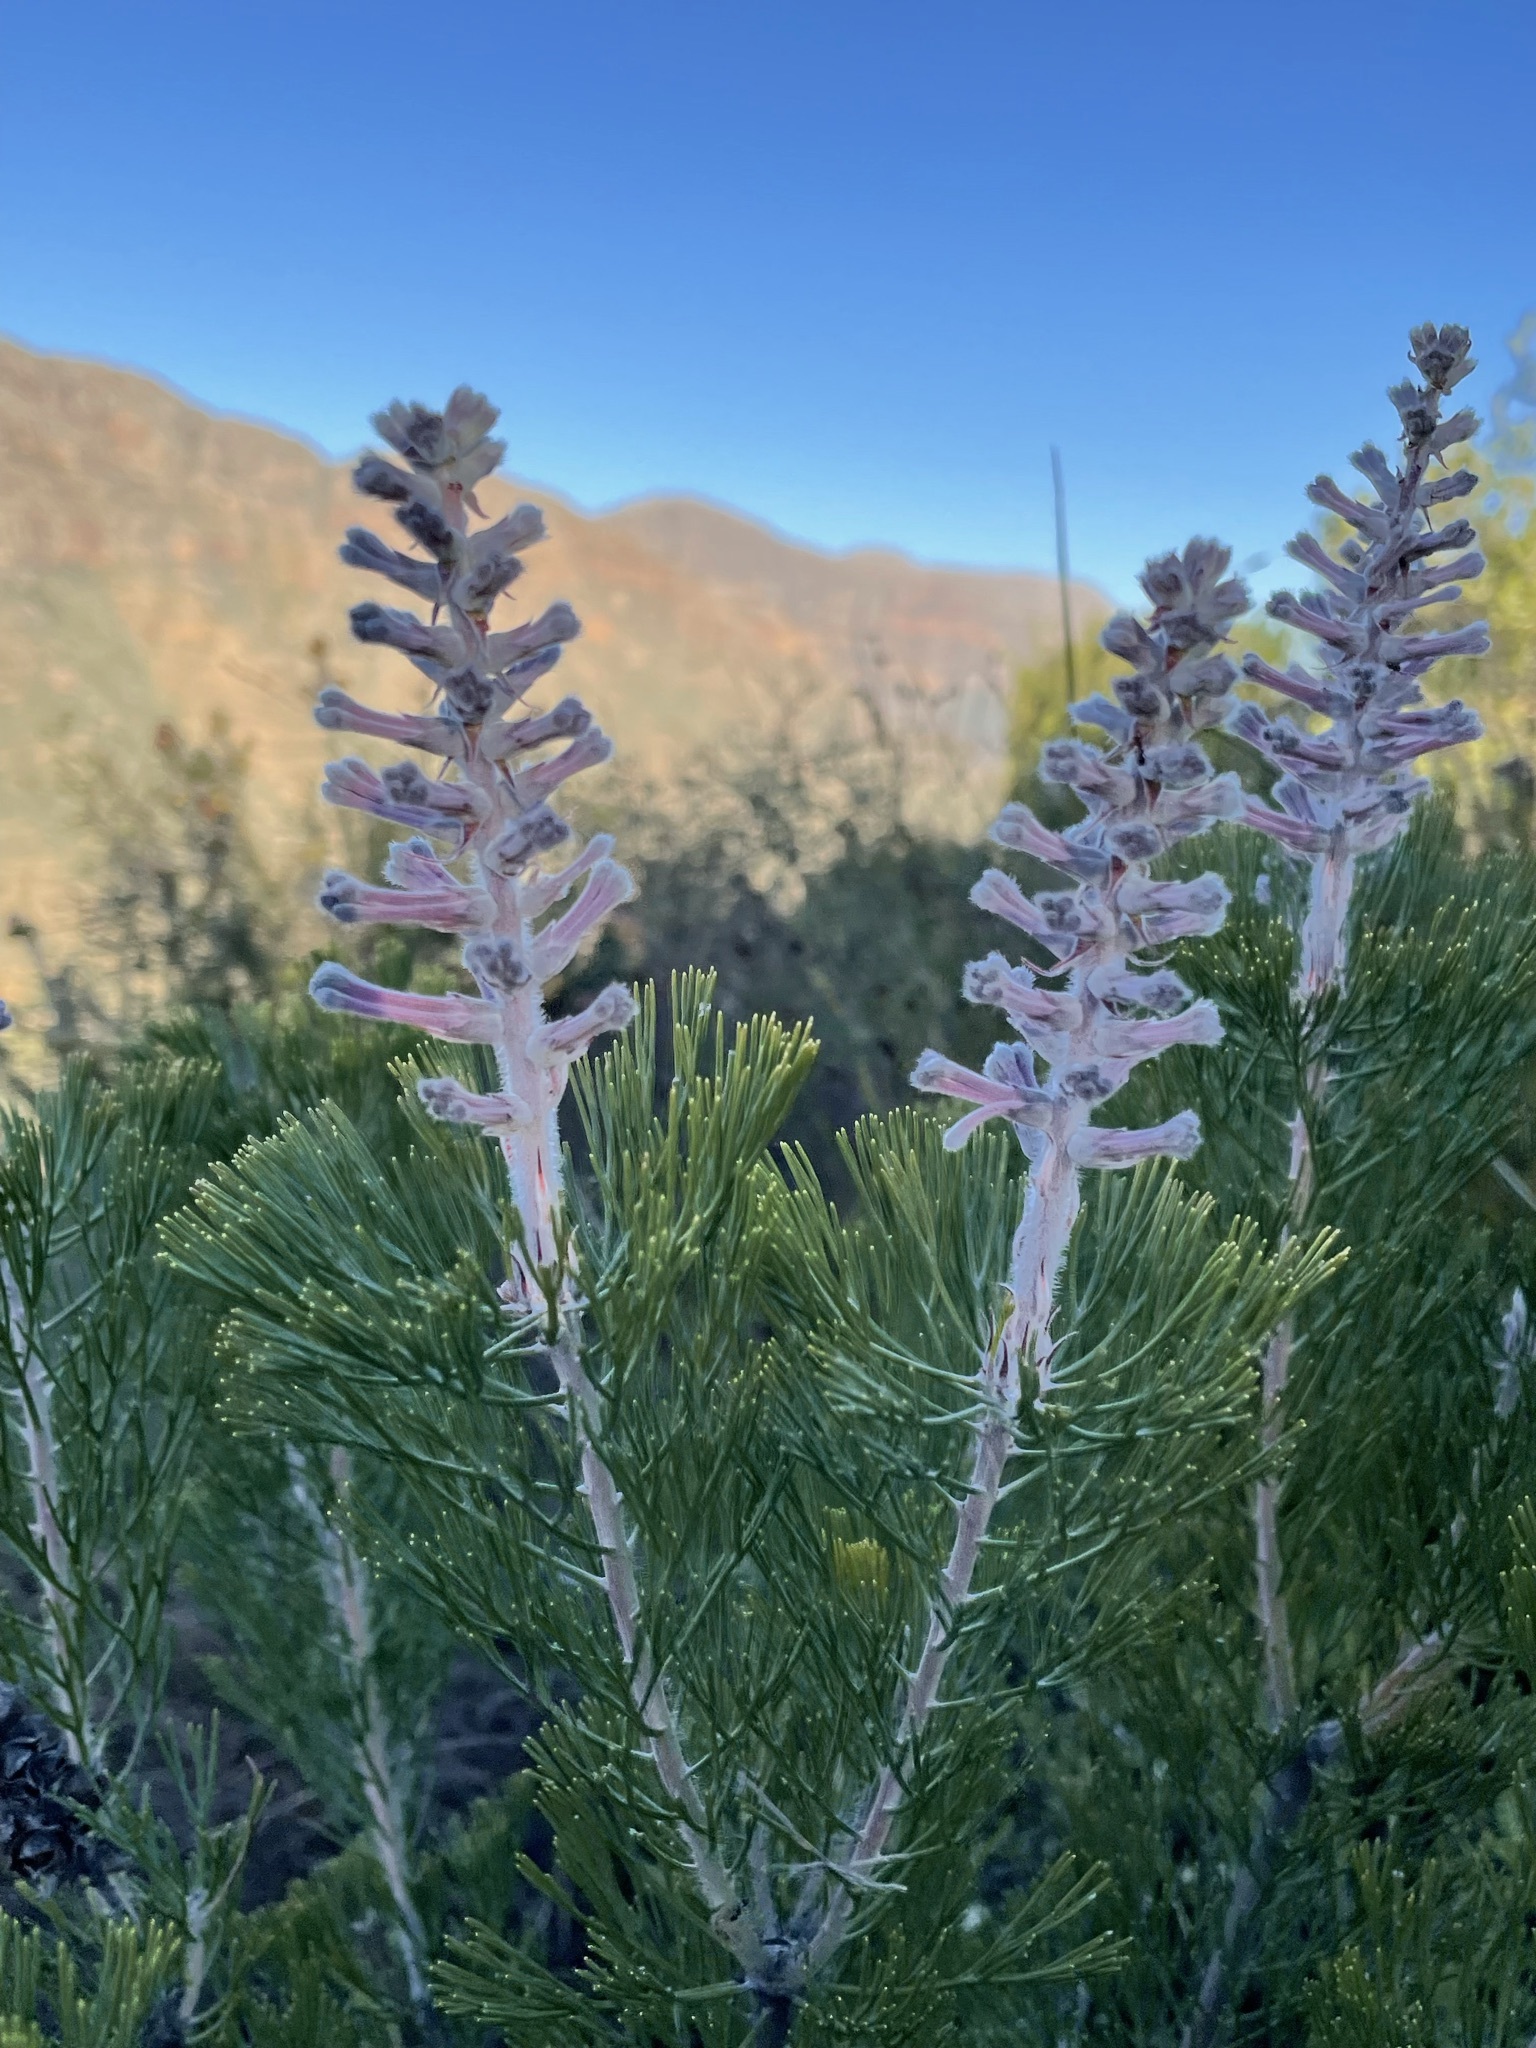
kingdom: Plantae
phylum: Tracheophyta
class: Magnoliopsida
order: Proteales
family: Proteaceae
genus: Paranomus
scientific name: Paranomus bracteolaris
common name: Bokkeveld tree sceptre
